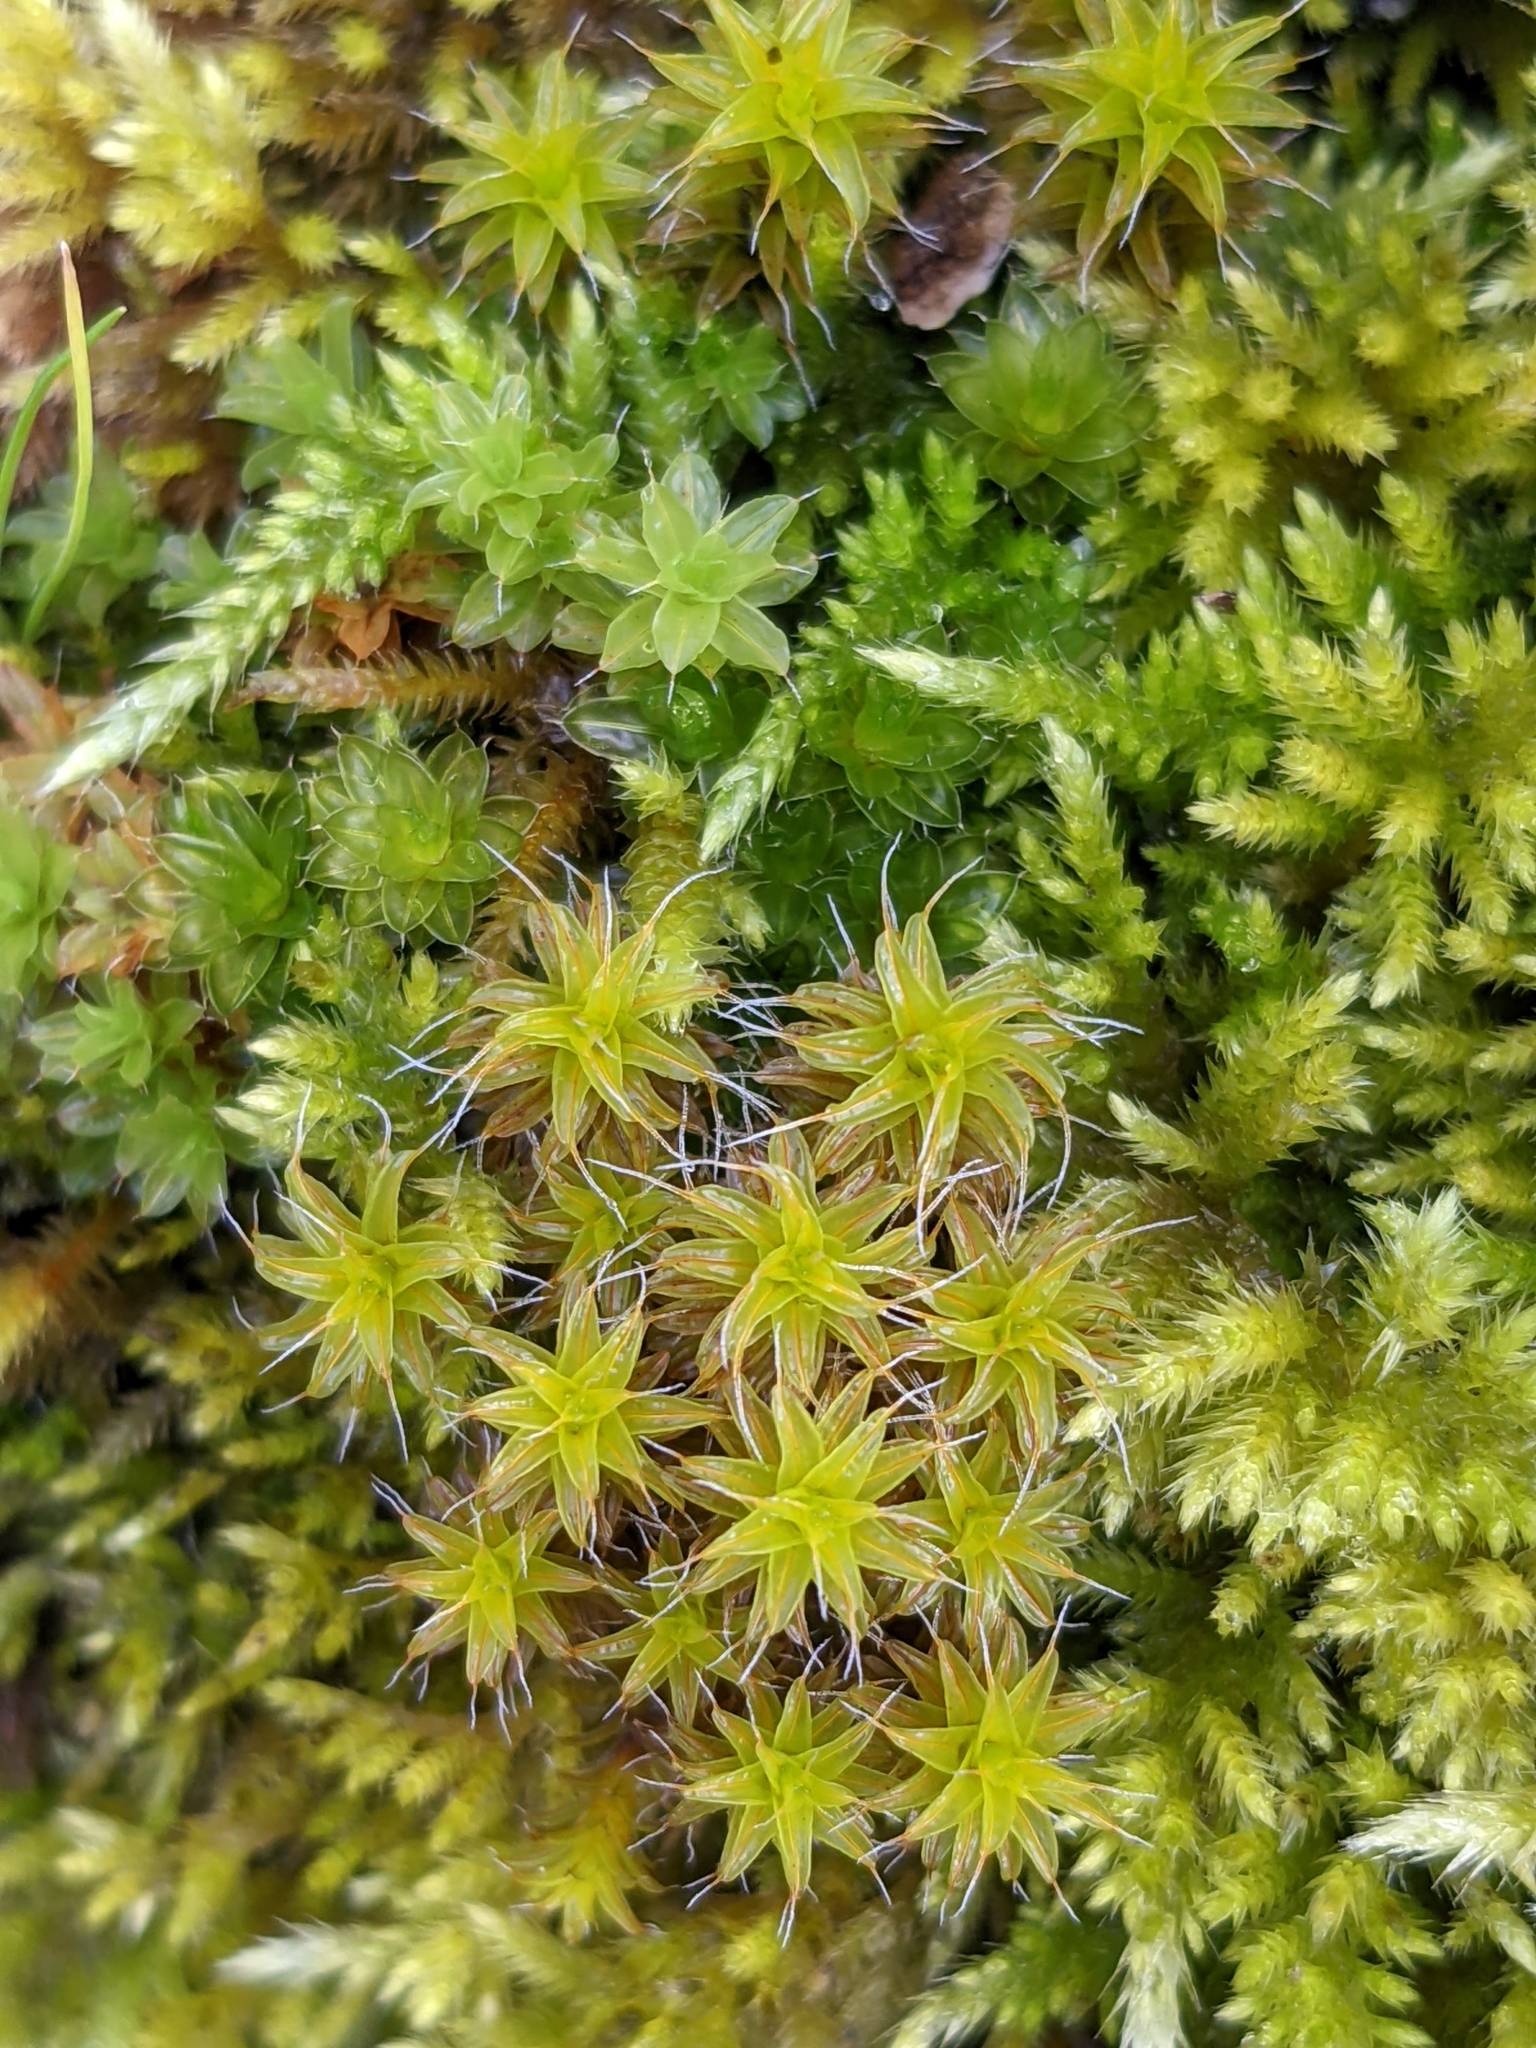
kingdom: Plantae
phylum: Bryophyta
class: Bryopsida
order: Pottiales
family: Pottiaceae
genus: Syntrichia
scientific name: Syntrichia ruralis
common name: Sidewalk screw moss
